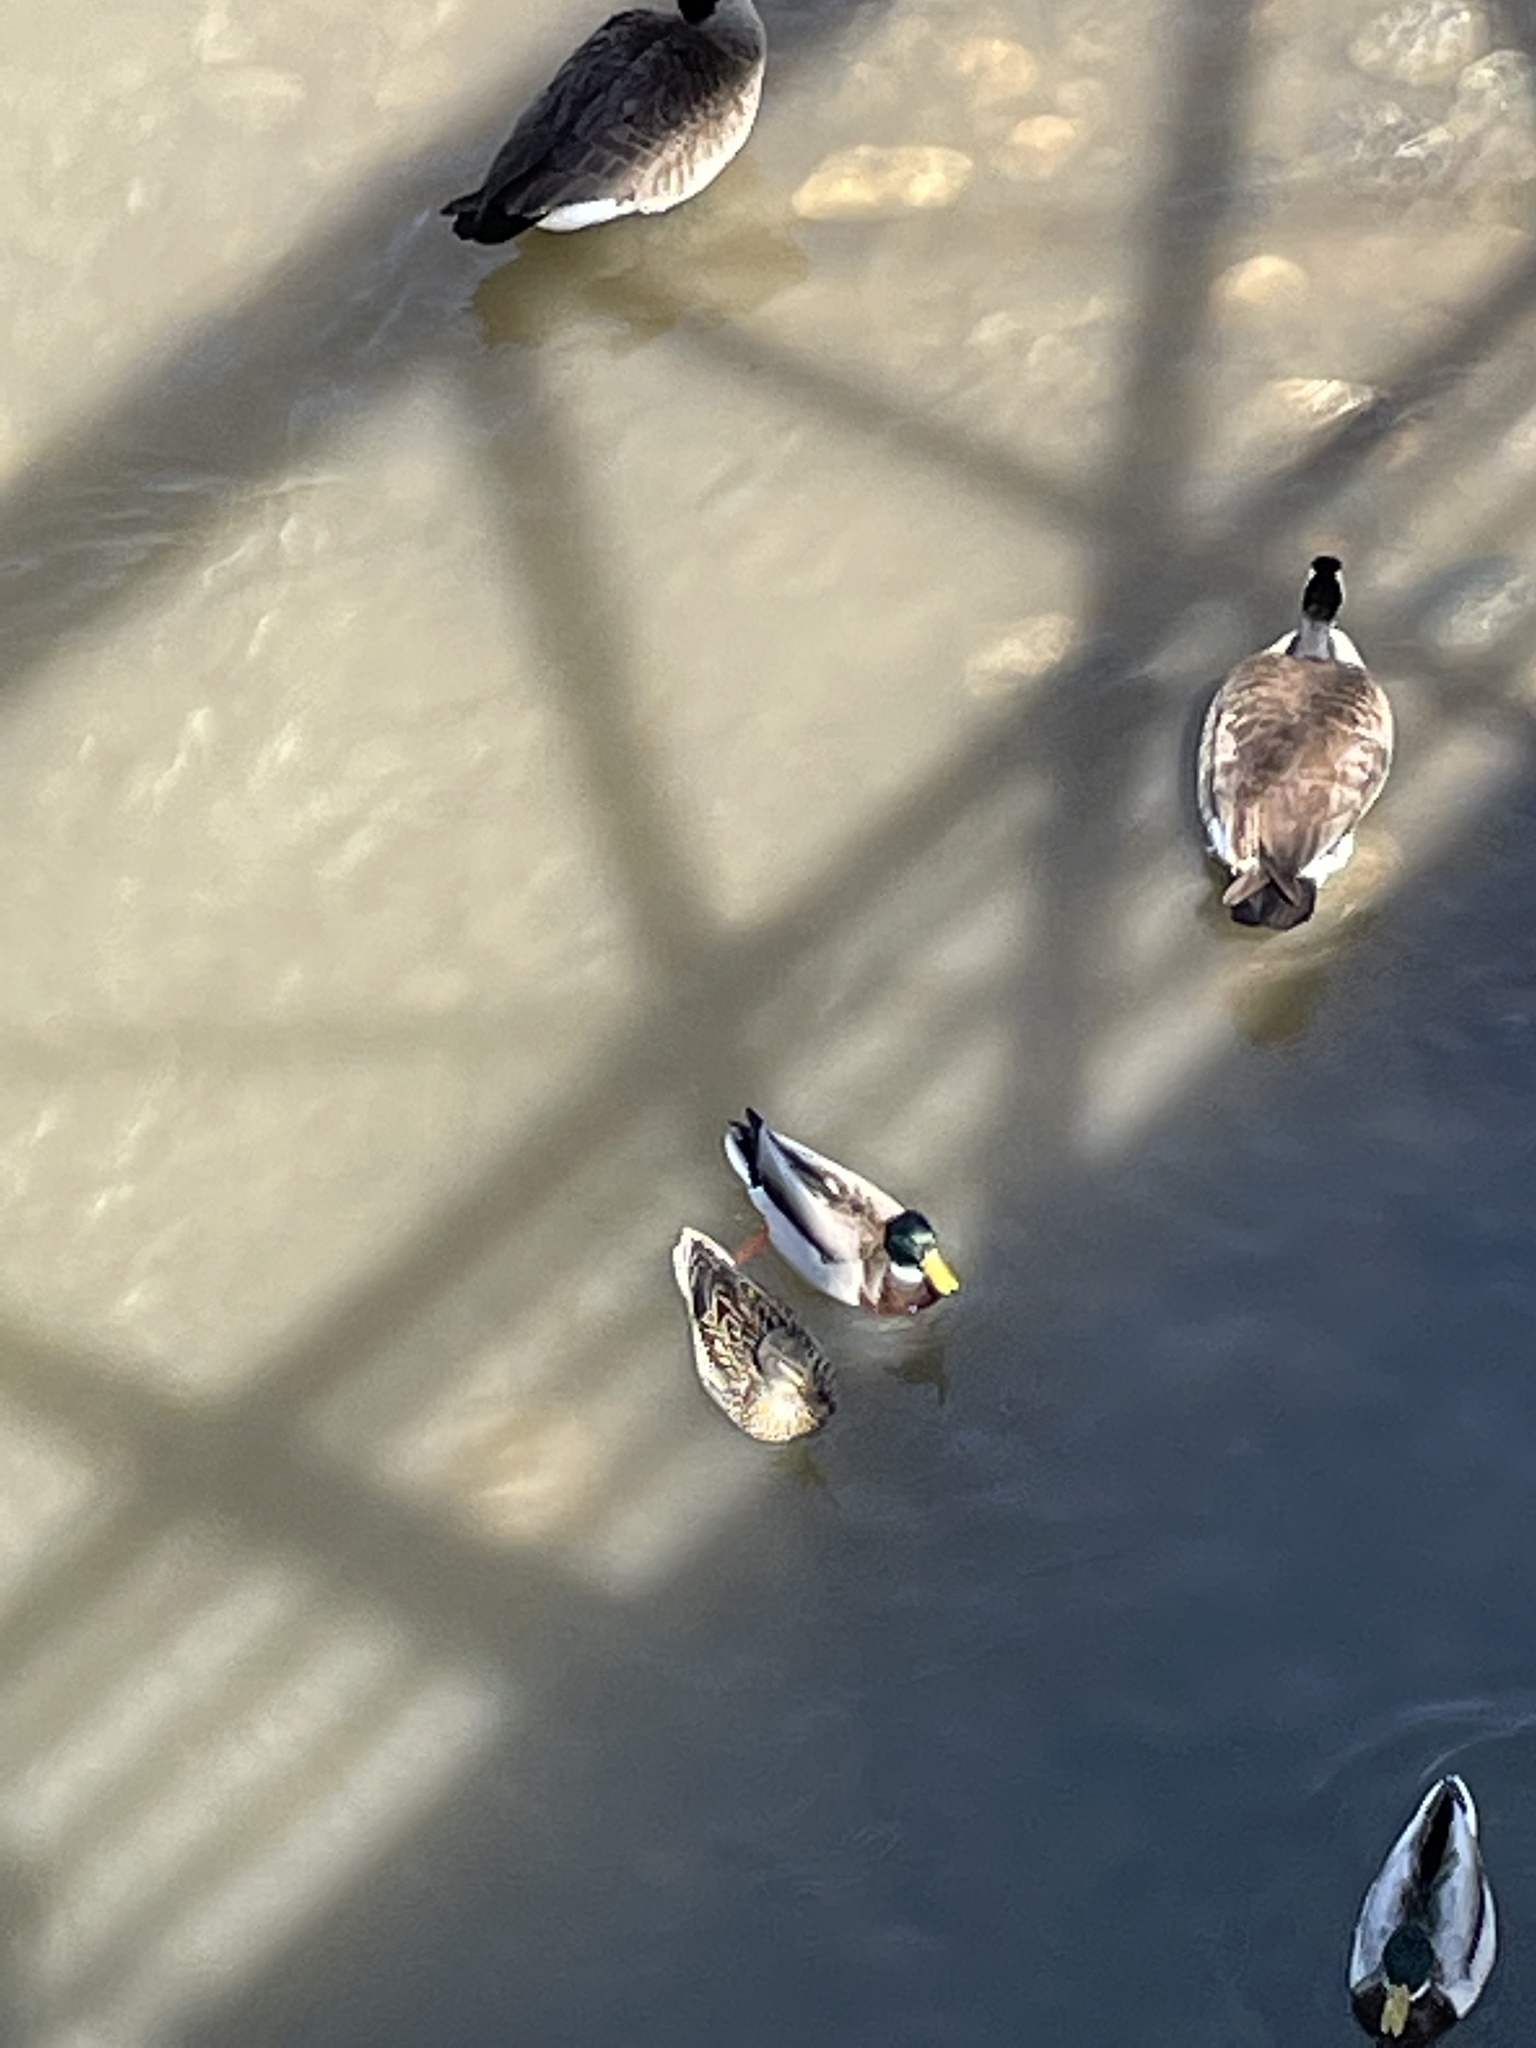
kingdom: Animalia
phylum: Chordata
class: Aves
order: Anseriformes
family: Anatidae
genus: Anas
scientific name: Anas platyrhynchos
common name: Mallard
